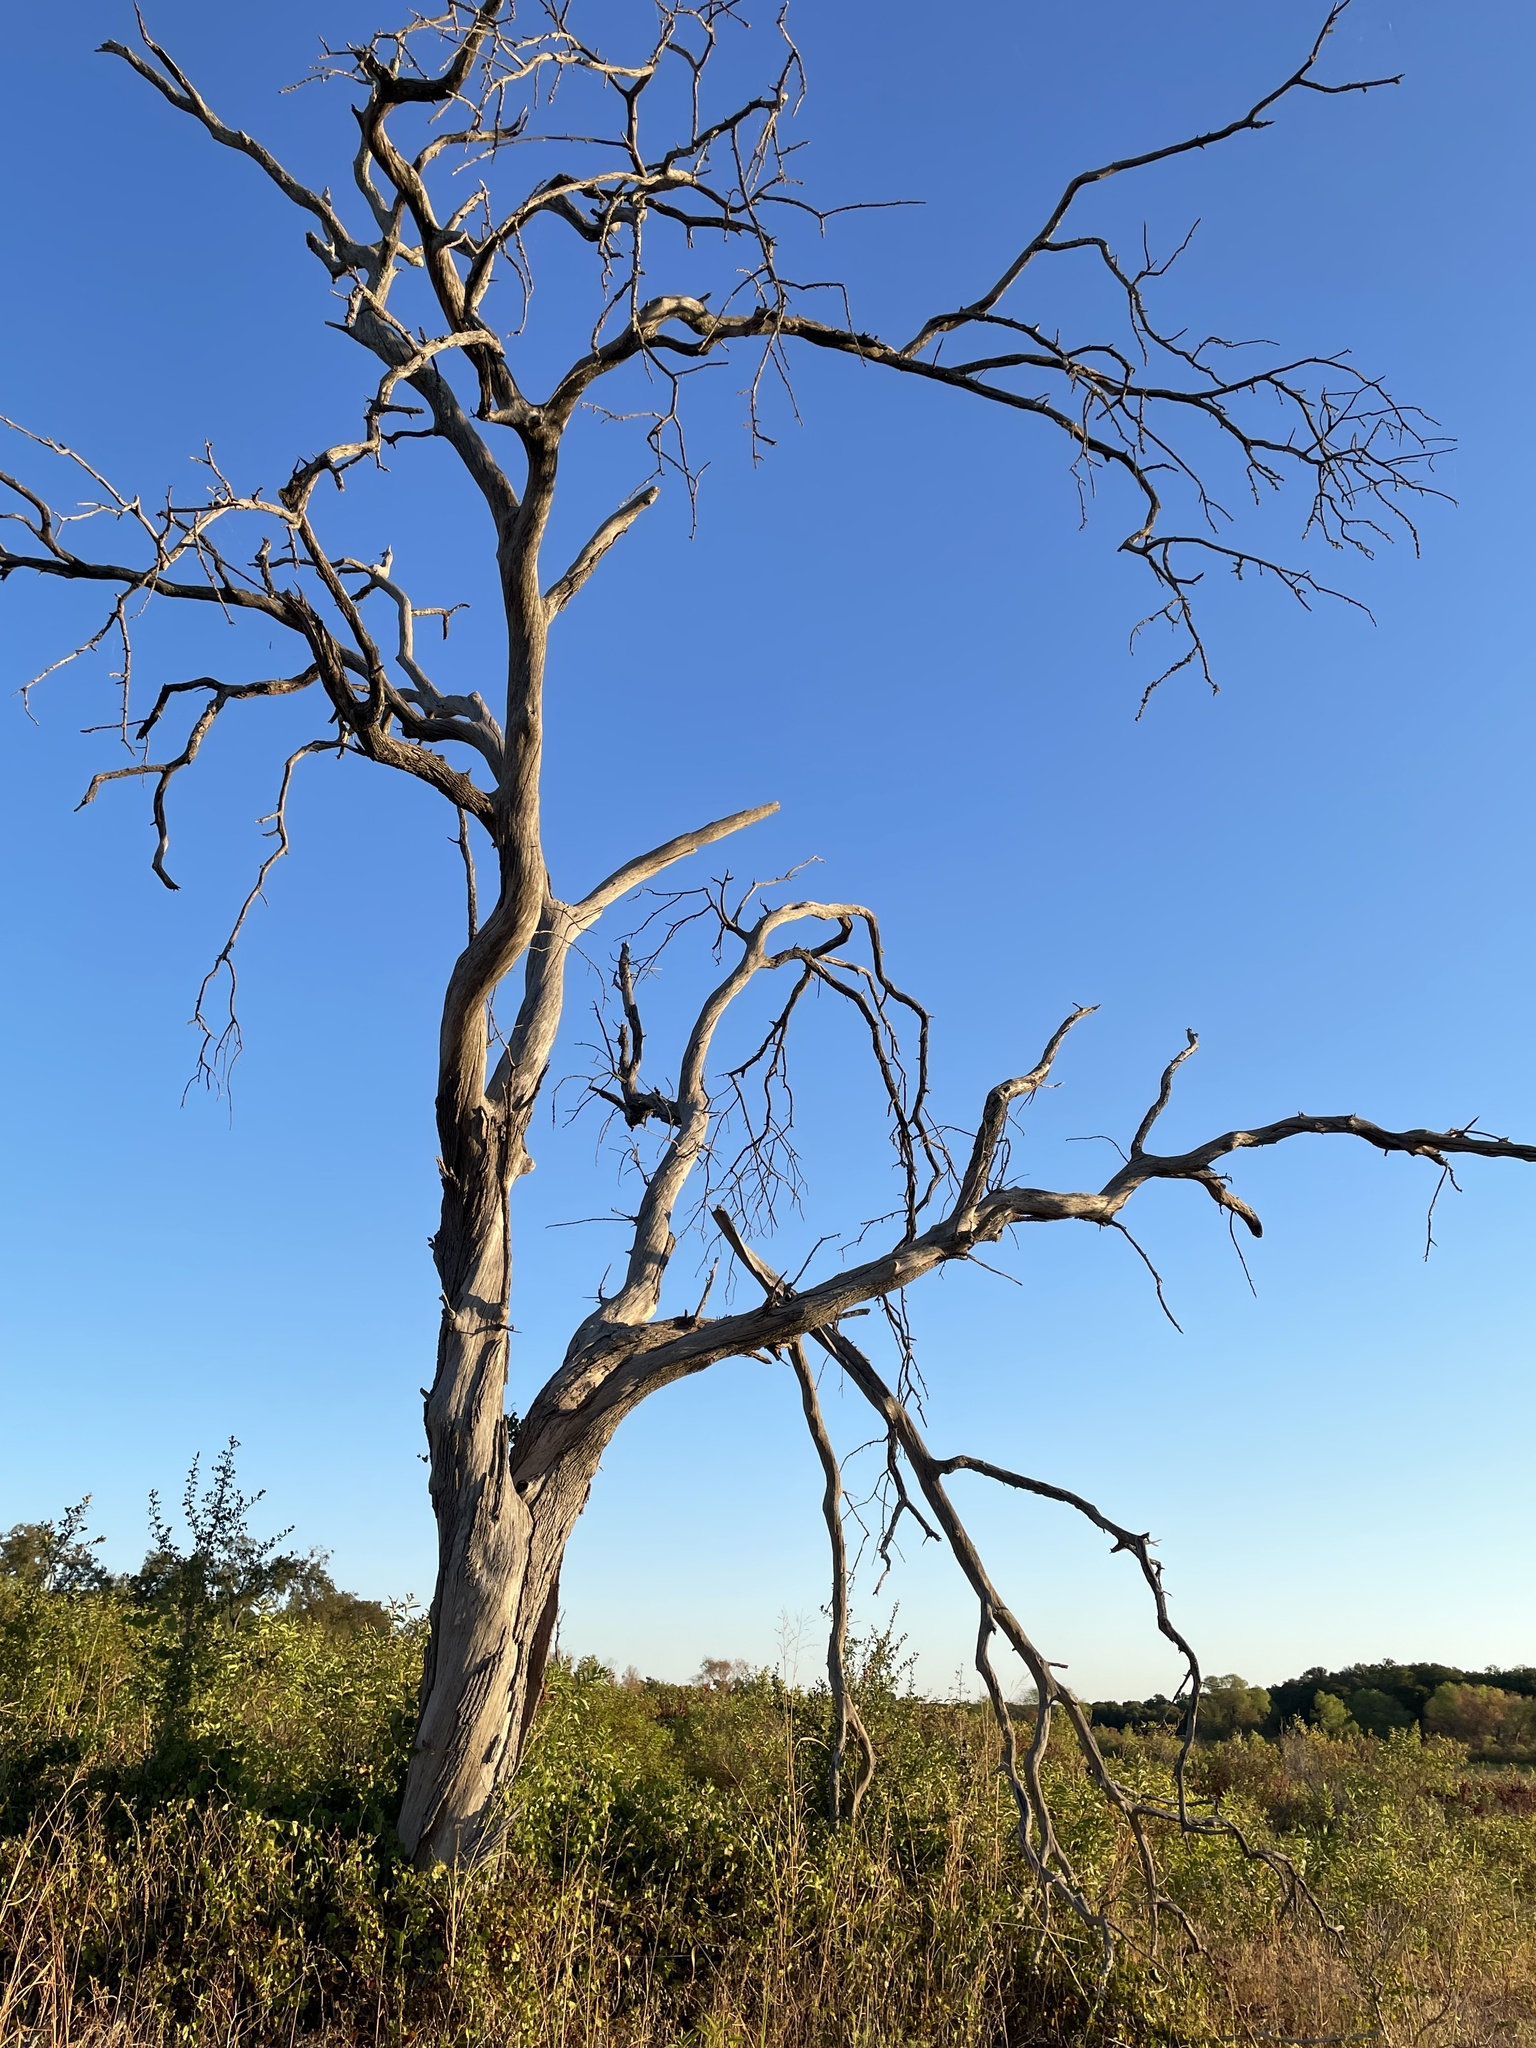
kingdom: Plantae
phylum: Tracheophyta
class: Magnoliopsida
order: Fagales
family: Fagaceae
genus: Quercus
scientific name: Quercus fusiformis
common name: Texas live oak
